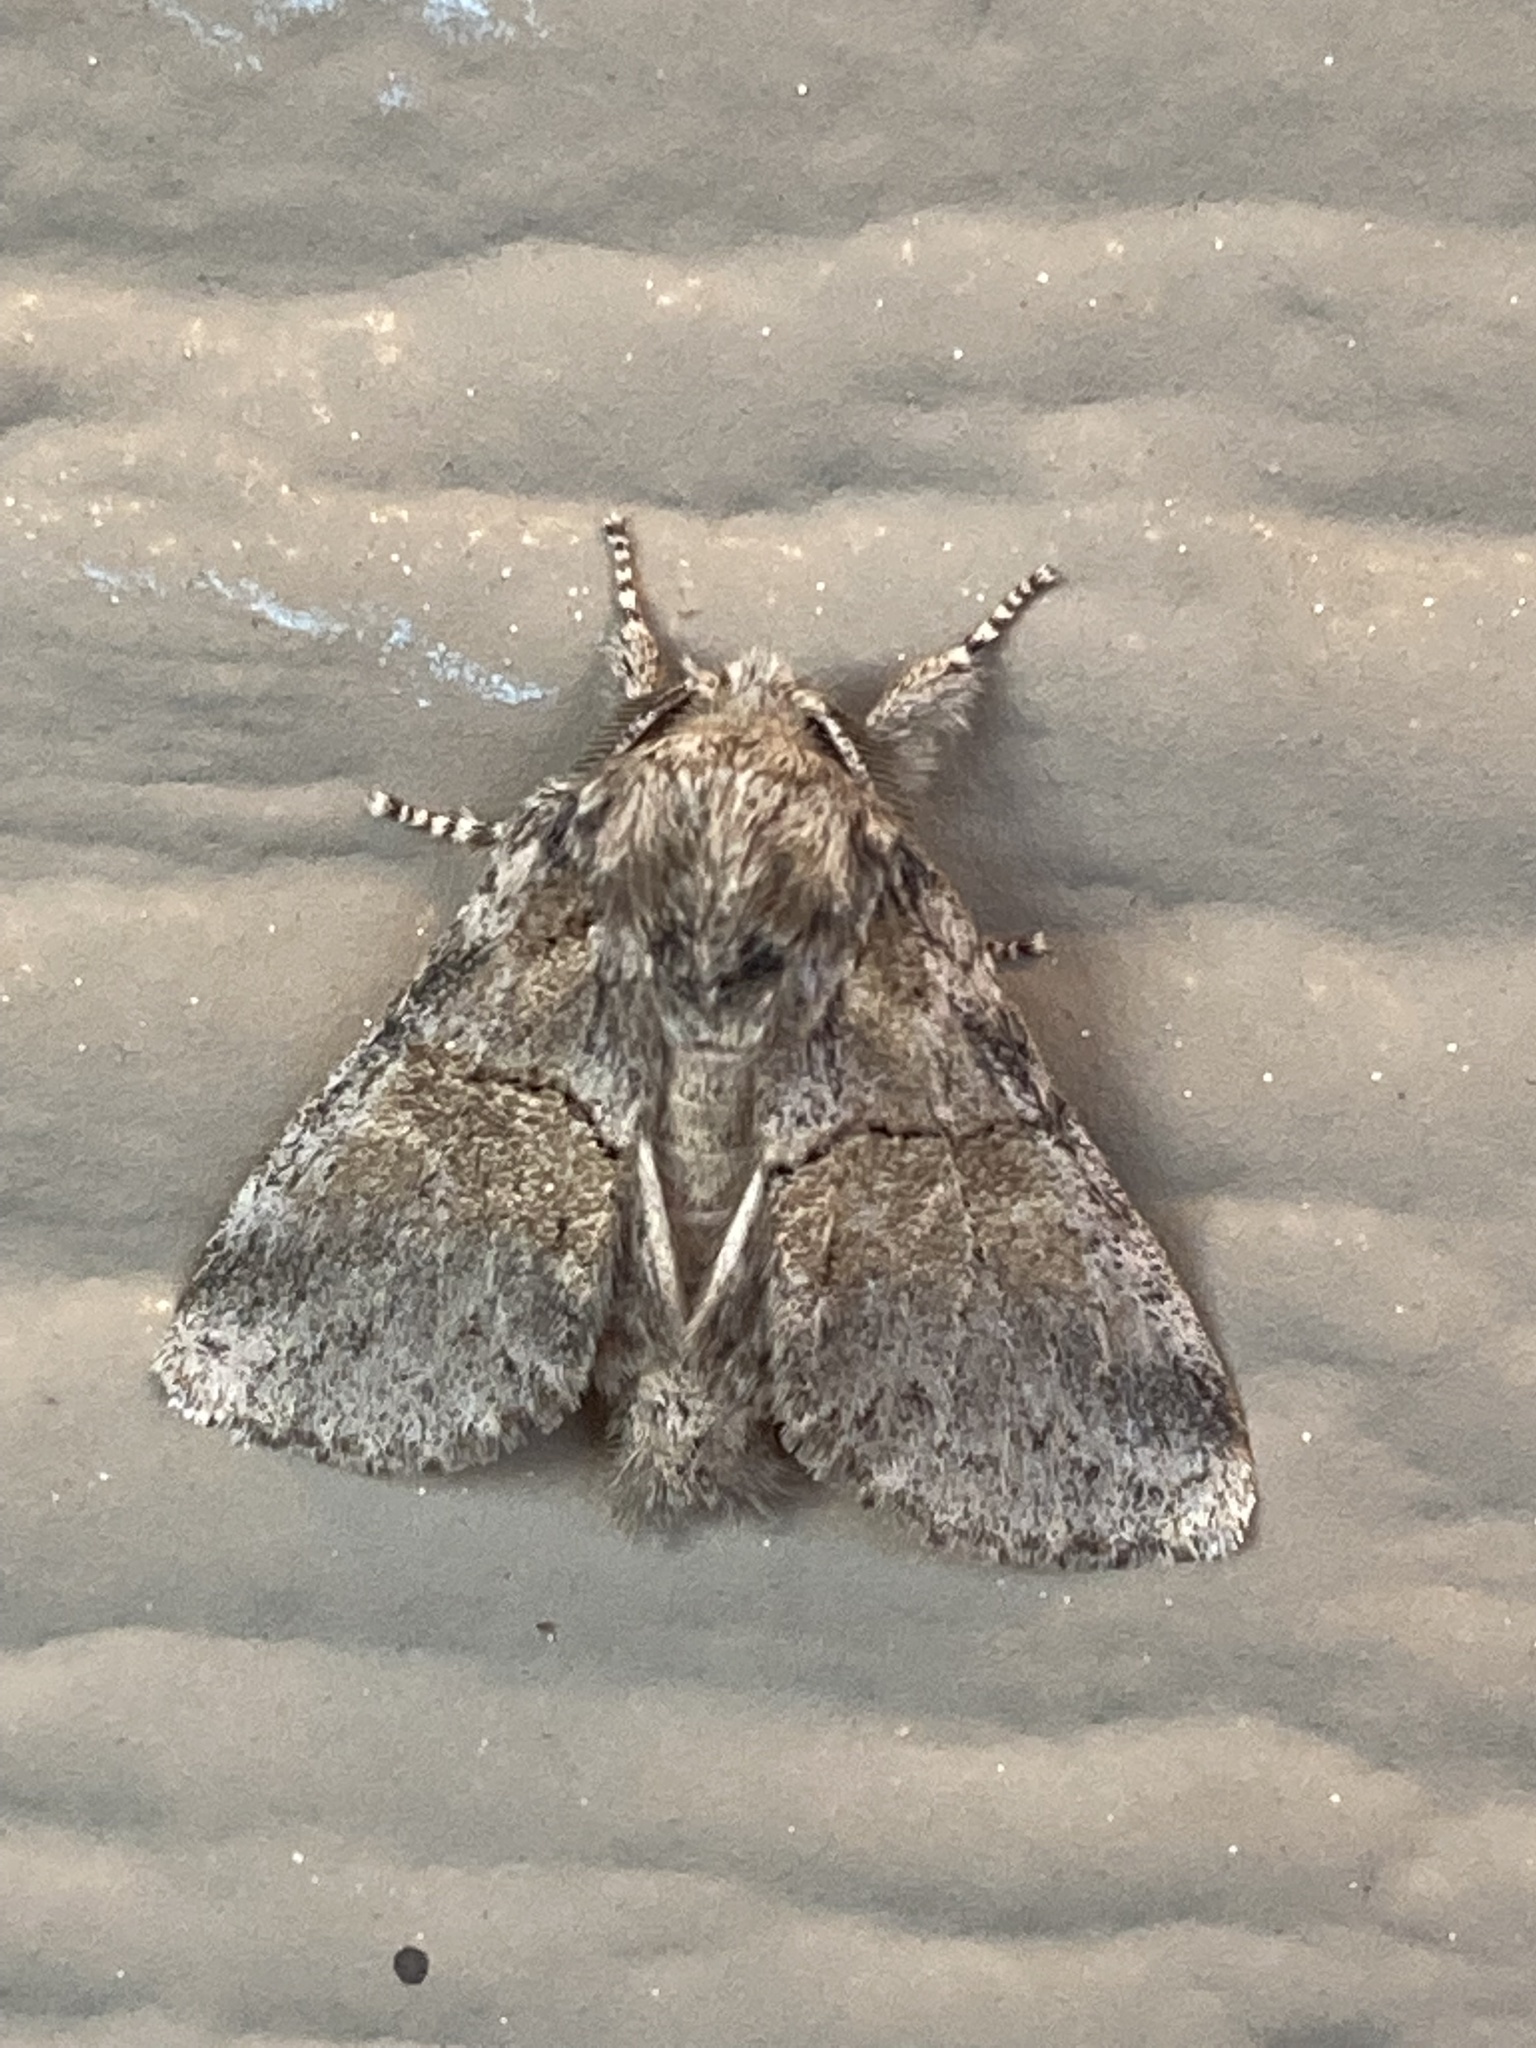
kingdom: Animalia
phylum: Arthropoda
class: Insecta
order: Lepidoptera
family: Notodontidae
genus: Gluphisia
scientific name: Gluphisia septentrionis
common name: Common gluphisia
